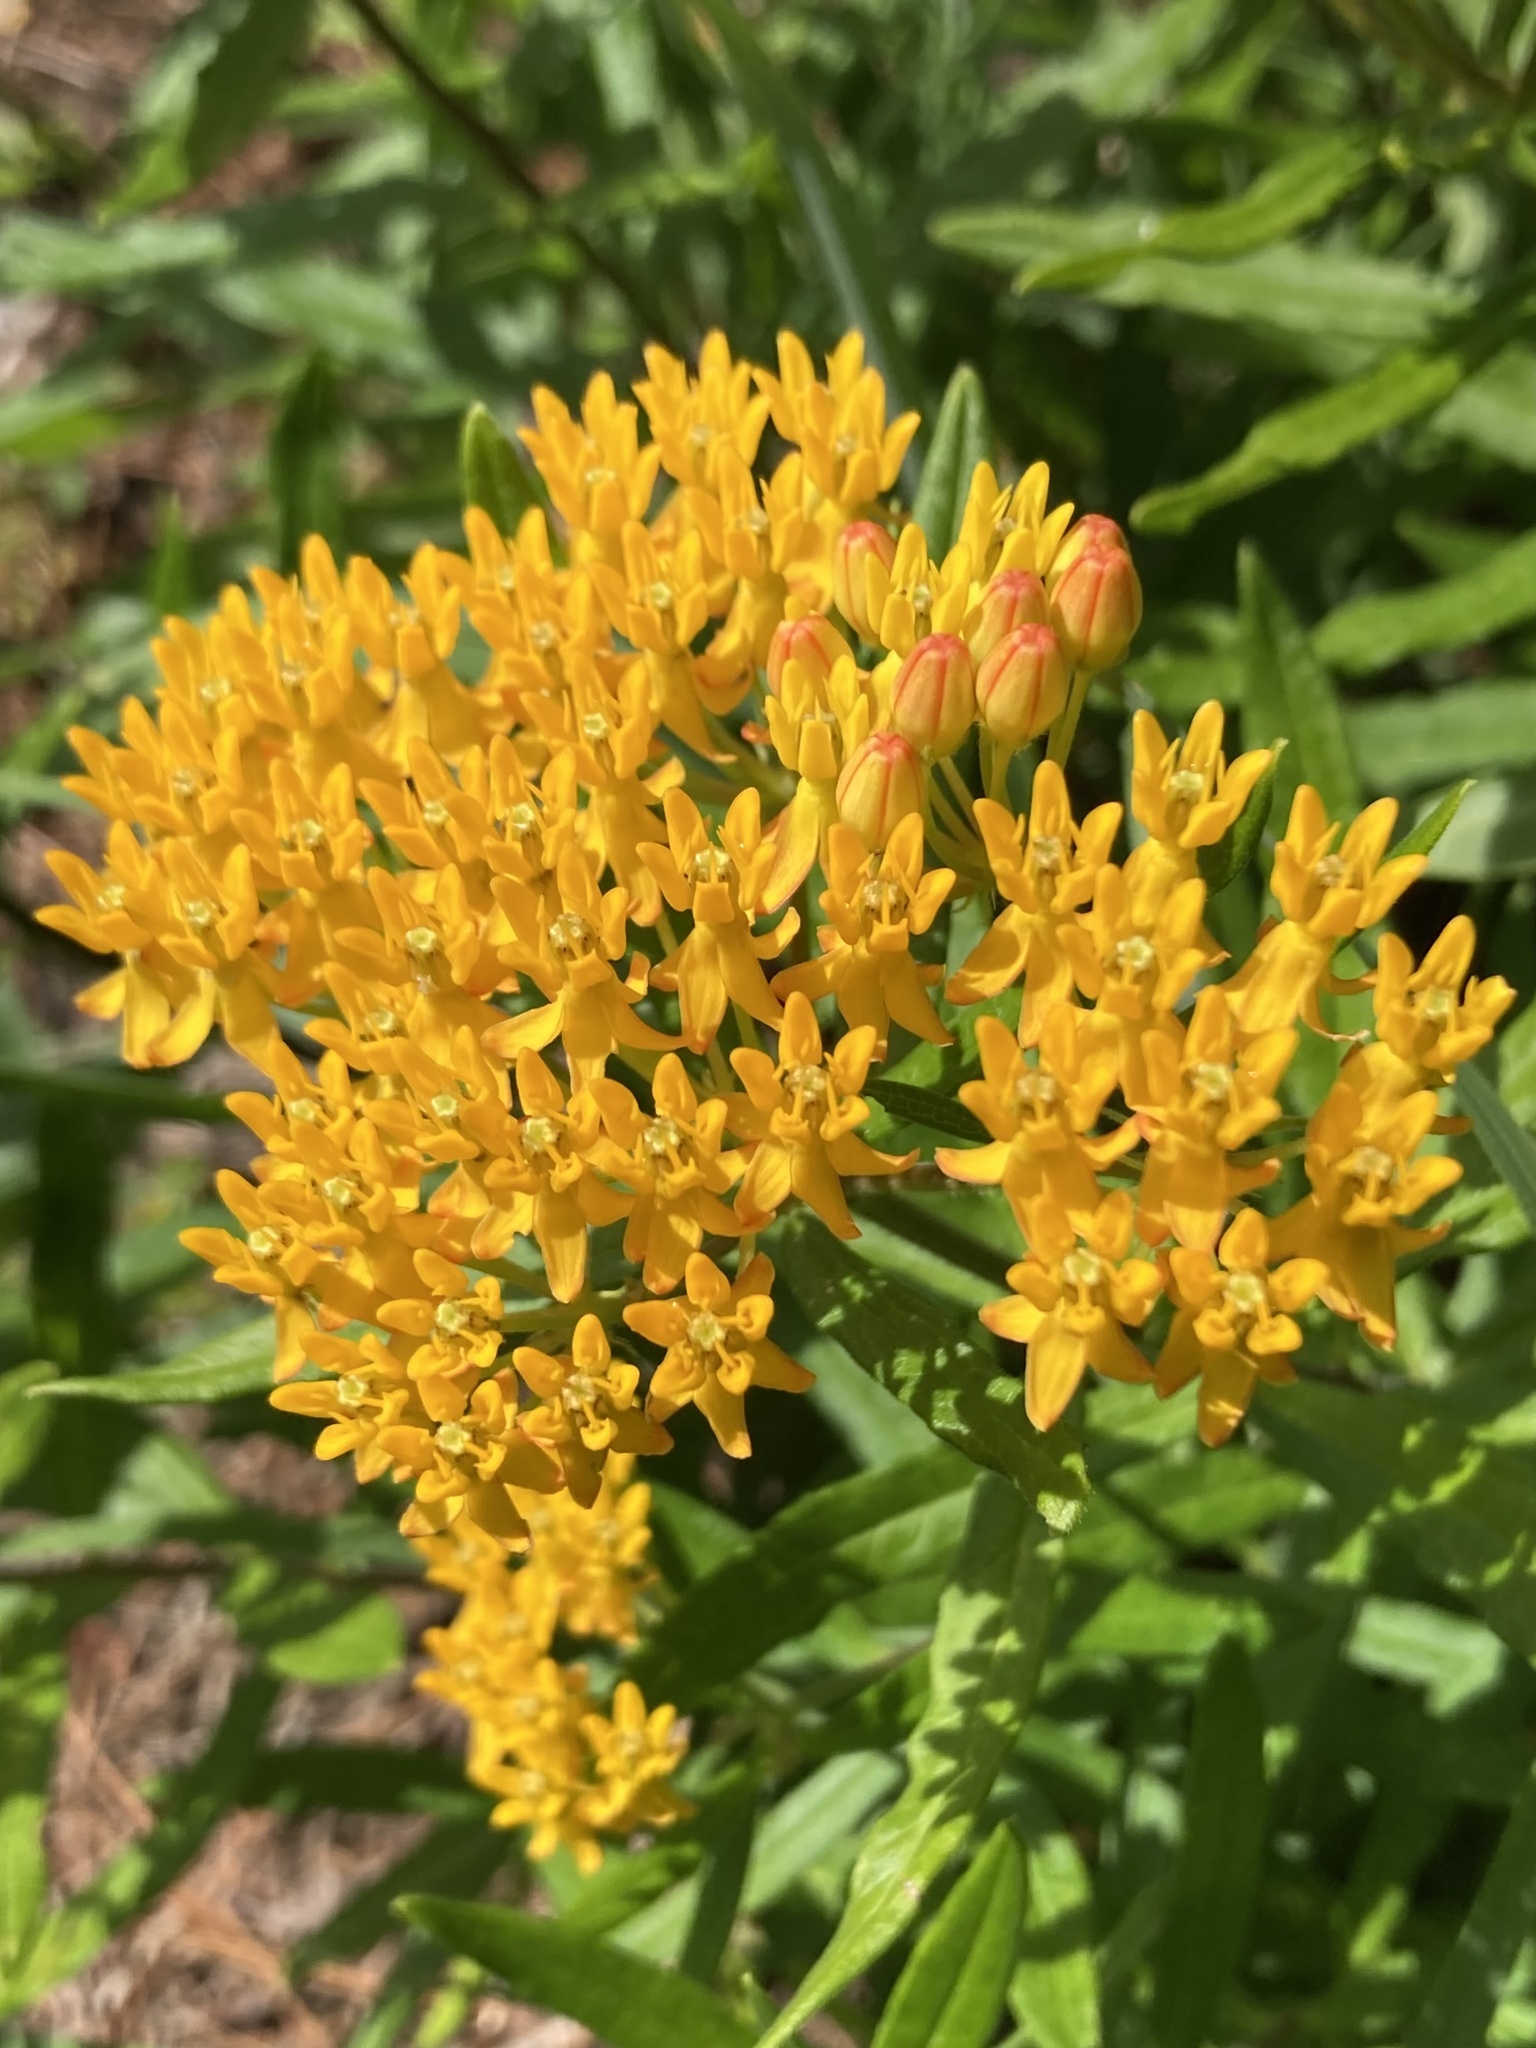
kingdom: Plantae
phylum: Tracheophyta
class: Magnoliopsida
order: Gentianales
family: Apocynaceae
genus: Asclepias
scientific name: Asclepias tuberosa
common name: Butterfly milkweed
